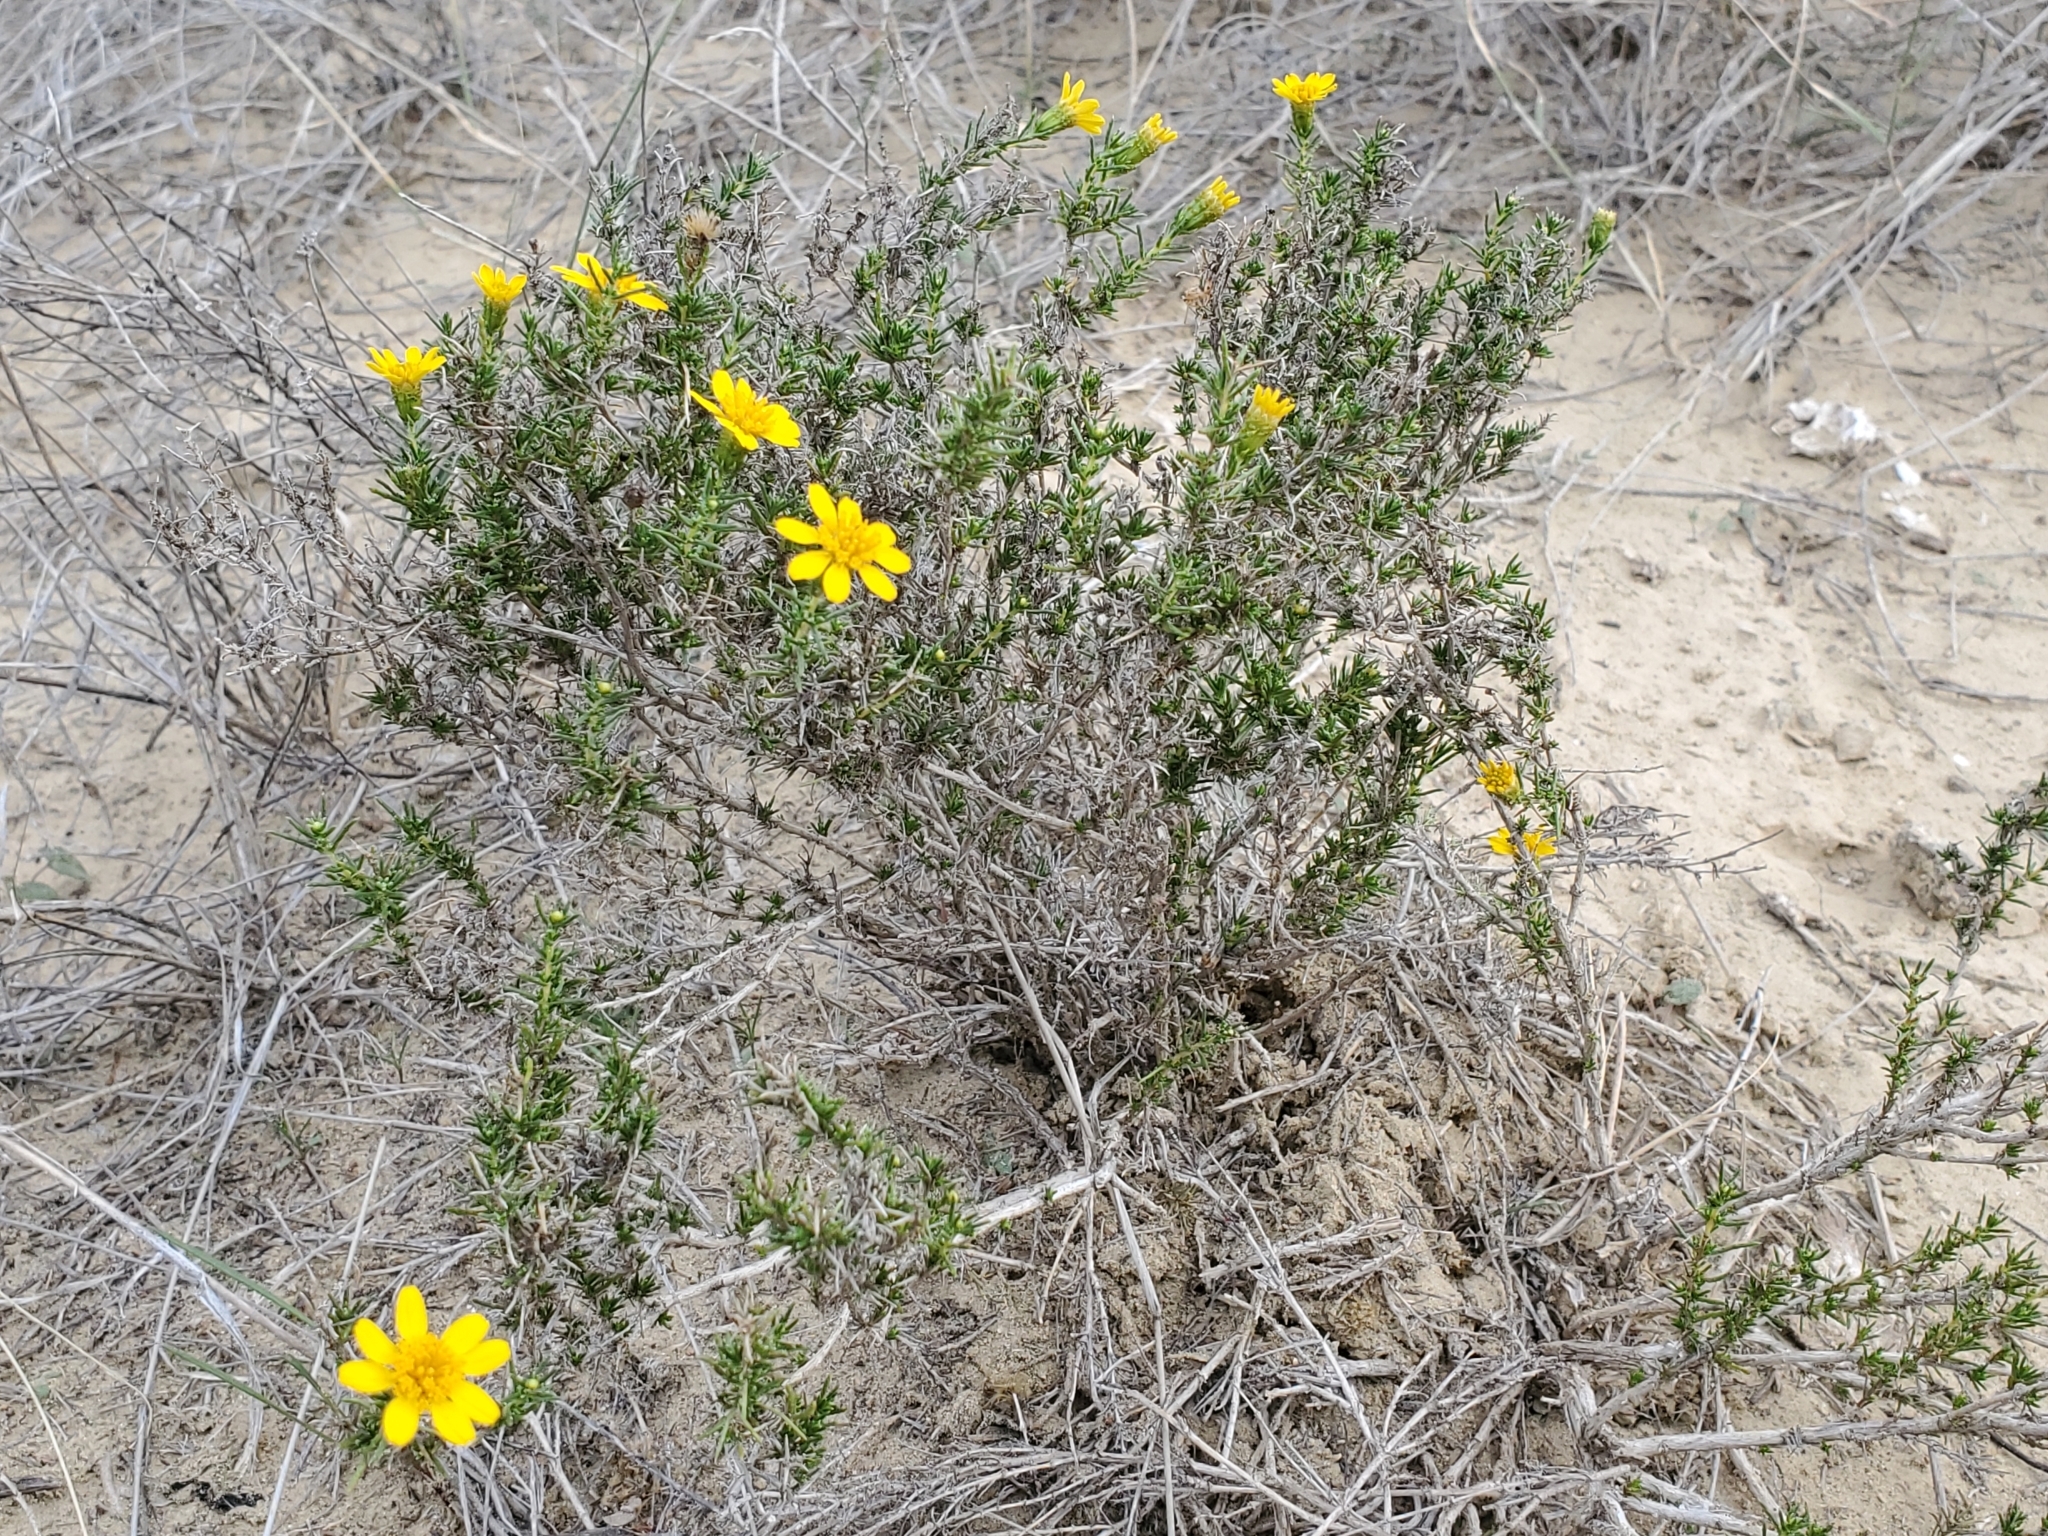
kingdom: Plantae
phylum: Tracheophyta
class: Magnoliopsida
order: Asterales
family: Asteraceae
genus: Thymophylla
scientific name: Thymophylla acerosa
